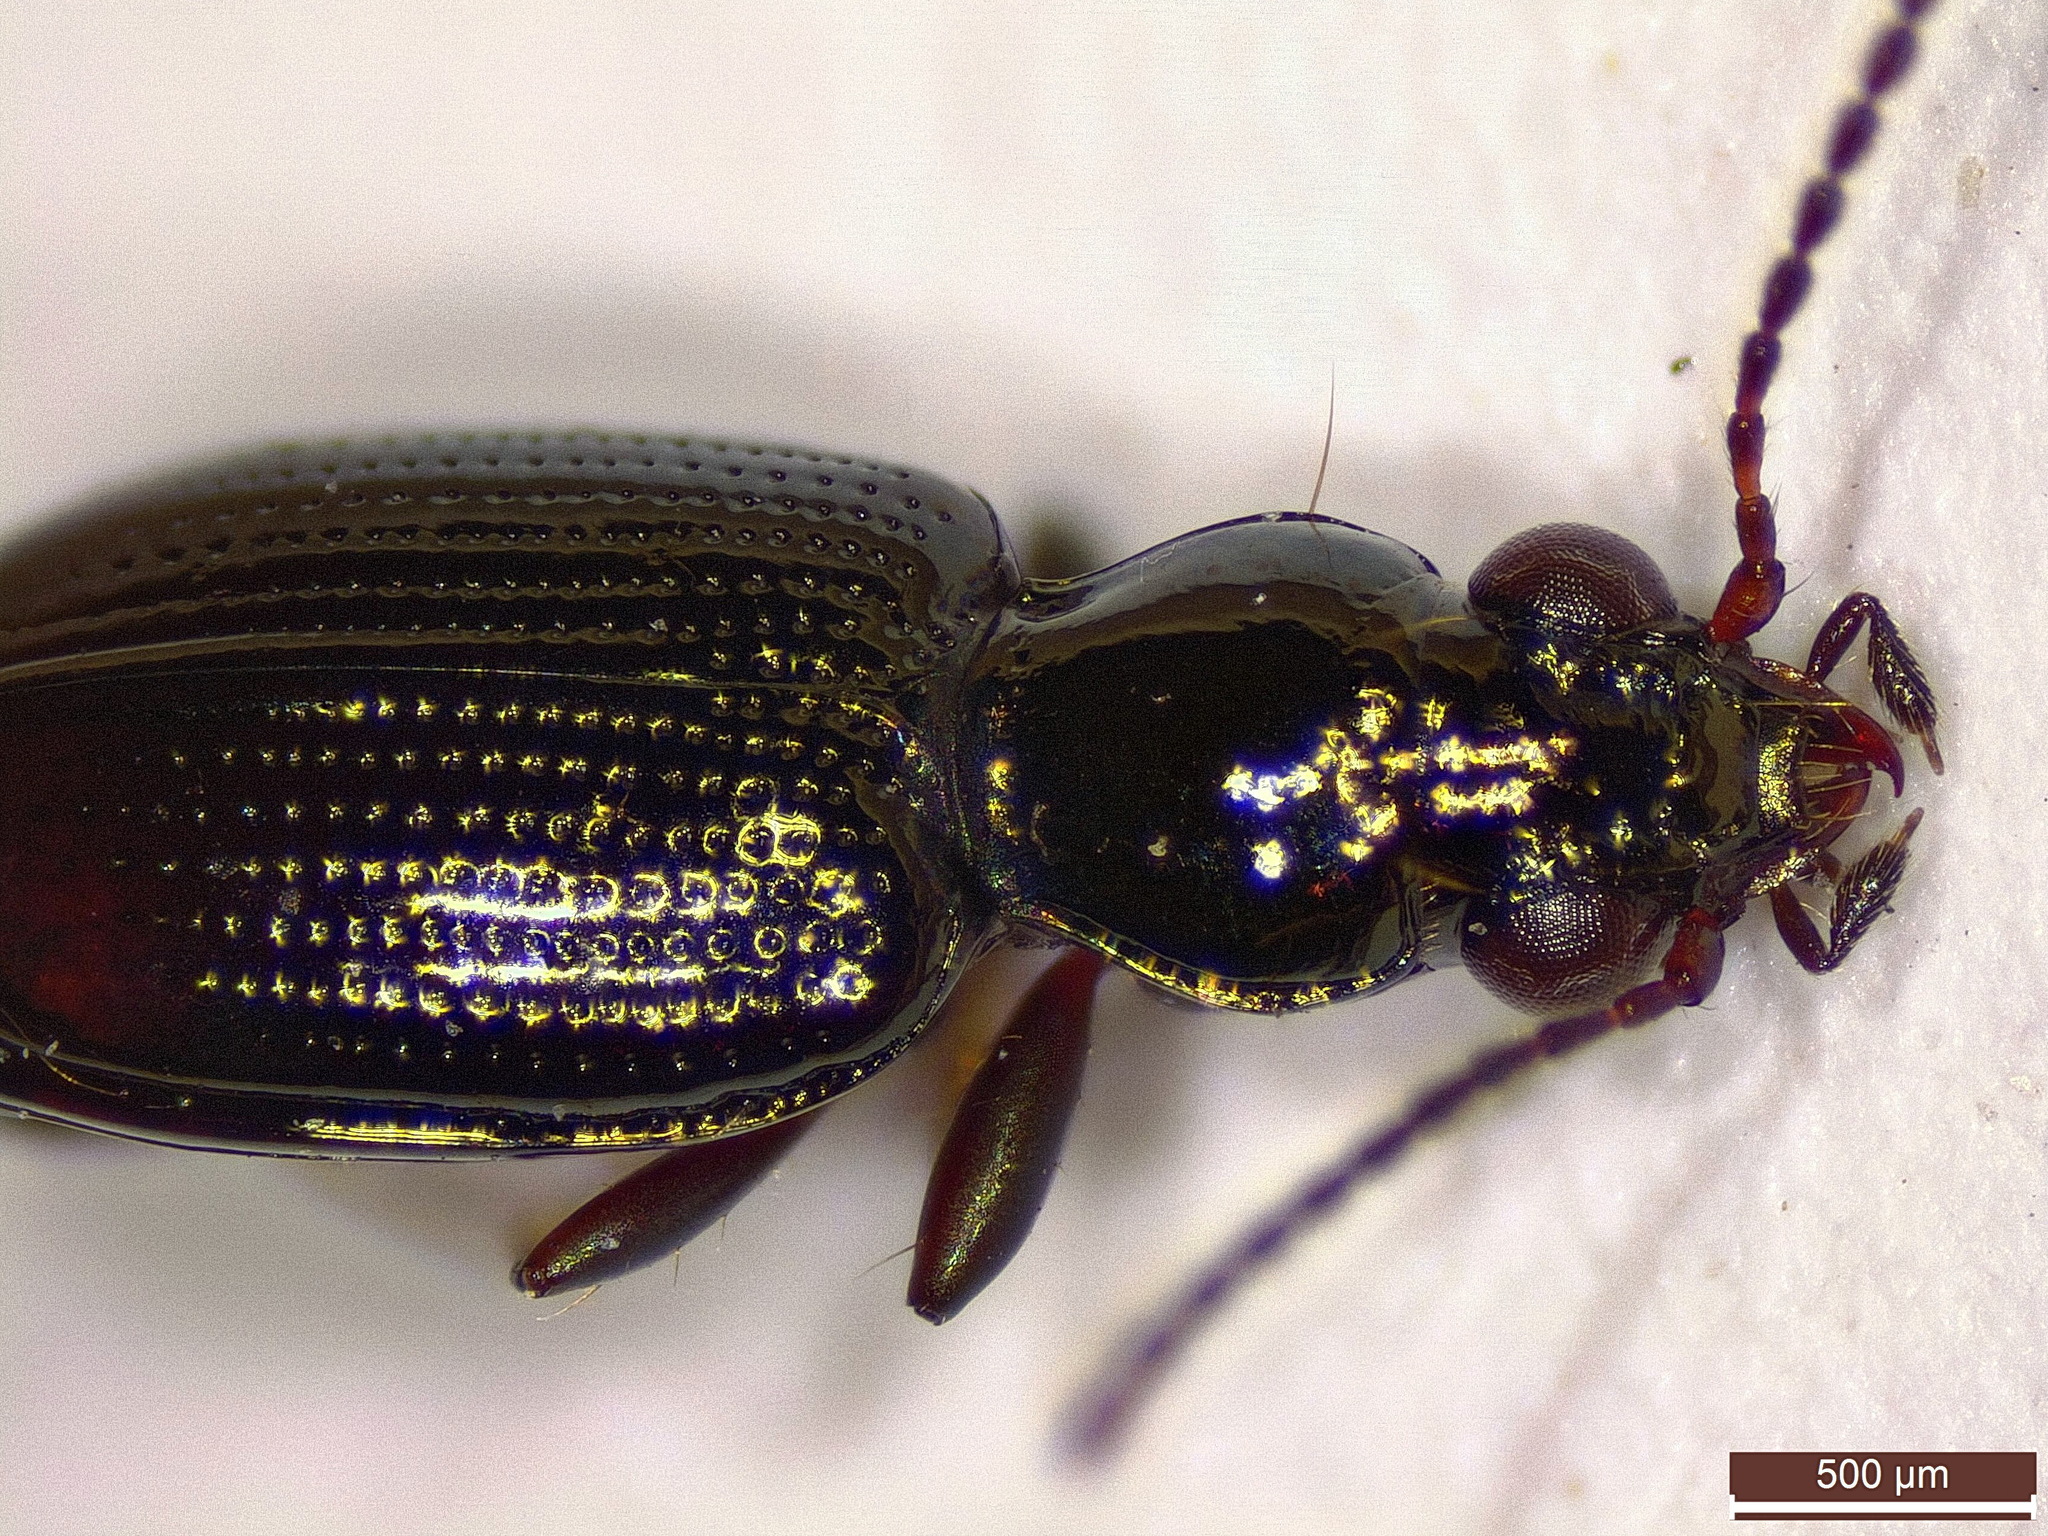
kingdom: Animalia
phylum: Arthropoda
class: Insecta
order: Coleoptera
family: Carabidae
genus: Bembidion
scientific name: Bembidion normannum
